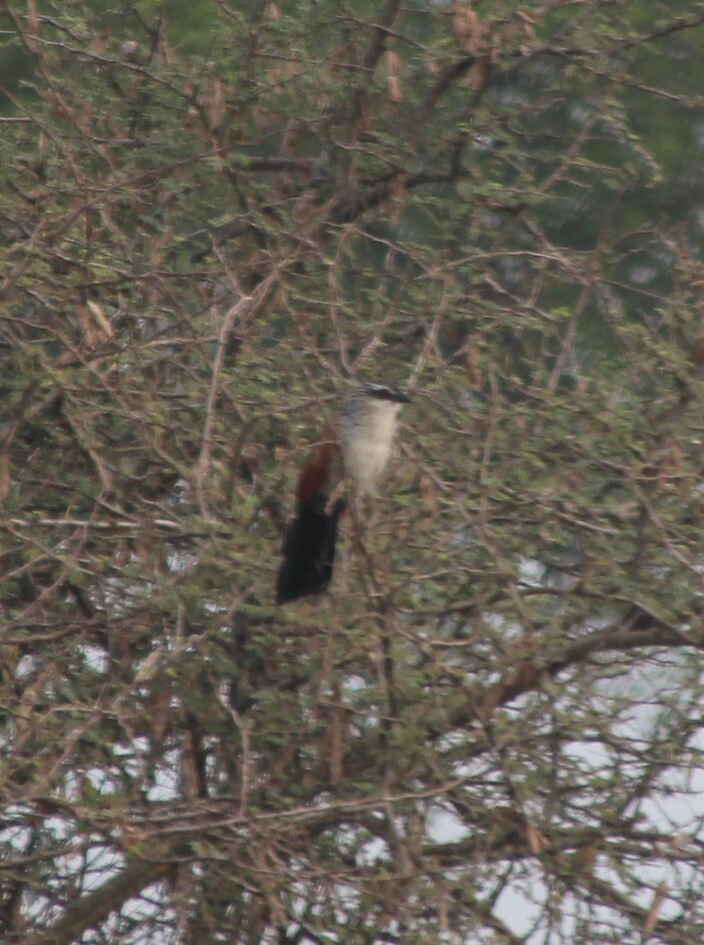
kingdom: Animalia
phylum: Chordata
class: Aves
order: Cuculiformes
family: Cuculidae
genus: Centropus
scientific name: Centropus superciliosus
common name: White-browed coucal
